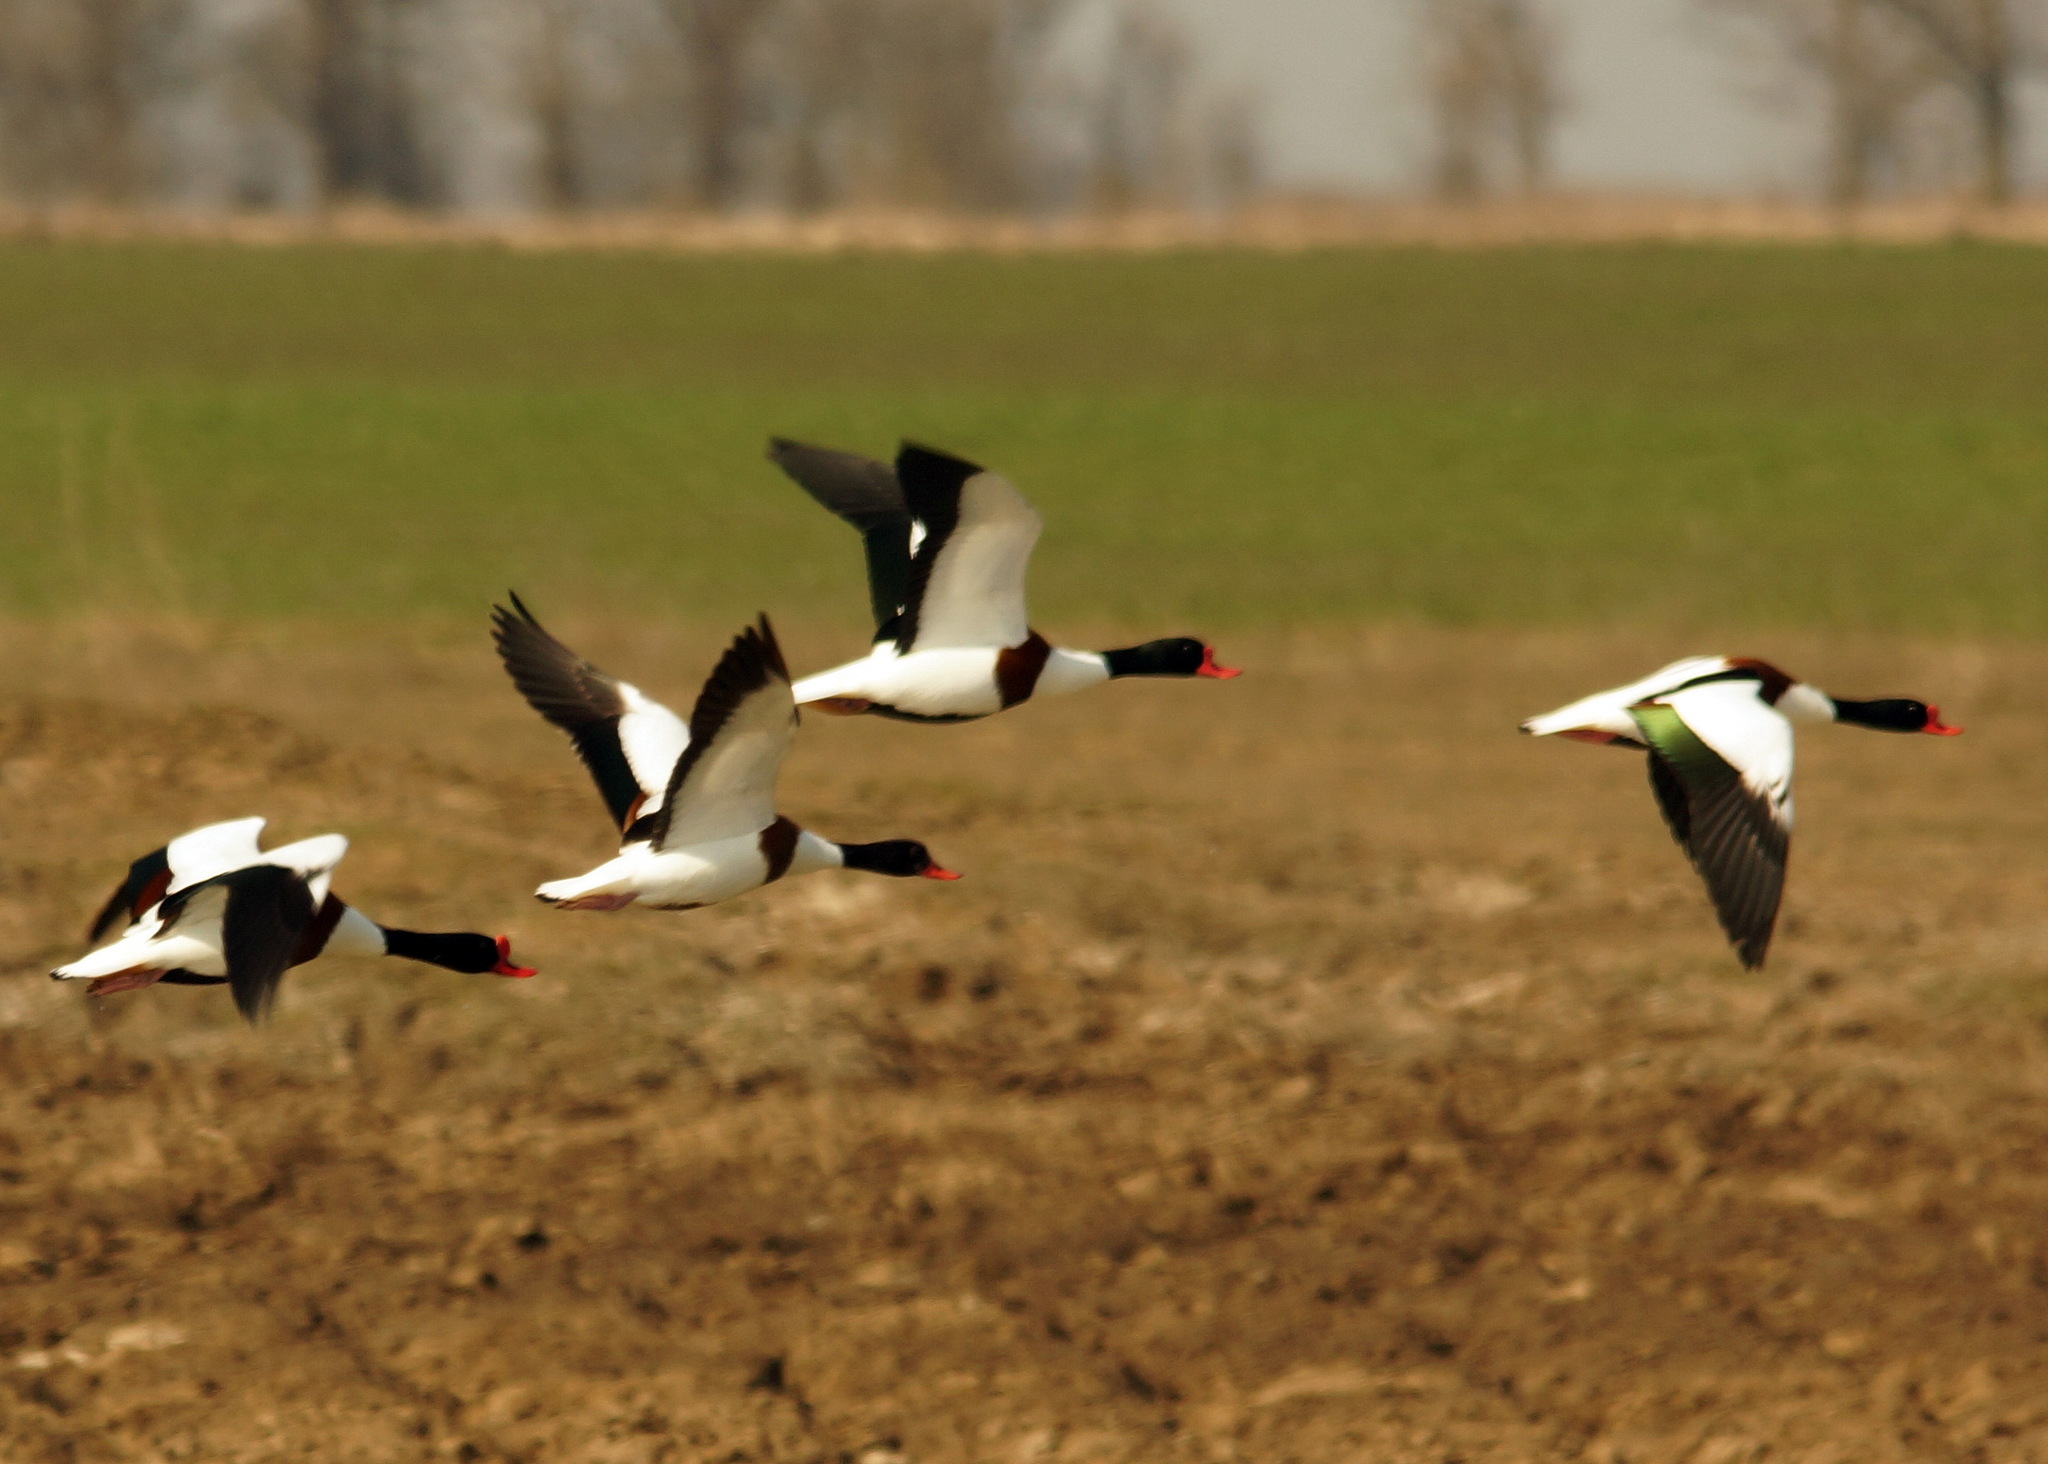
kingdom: Animalia
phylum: Chordata
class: Aves
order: Anseriformes
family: Anatidae
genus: Tadorna
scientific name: Tadorna tadorna
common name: Common shelduck
